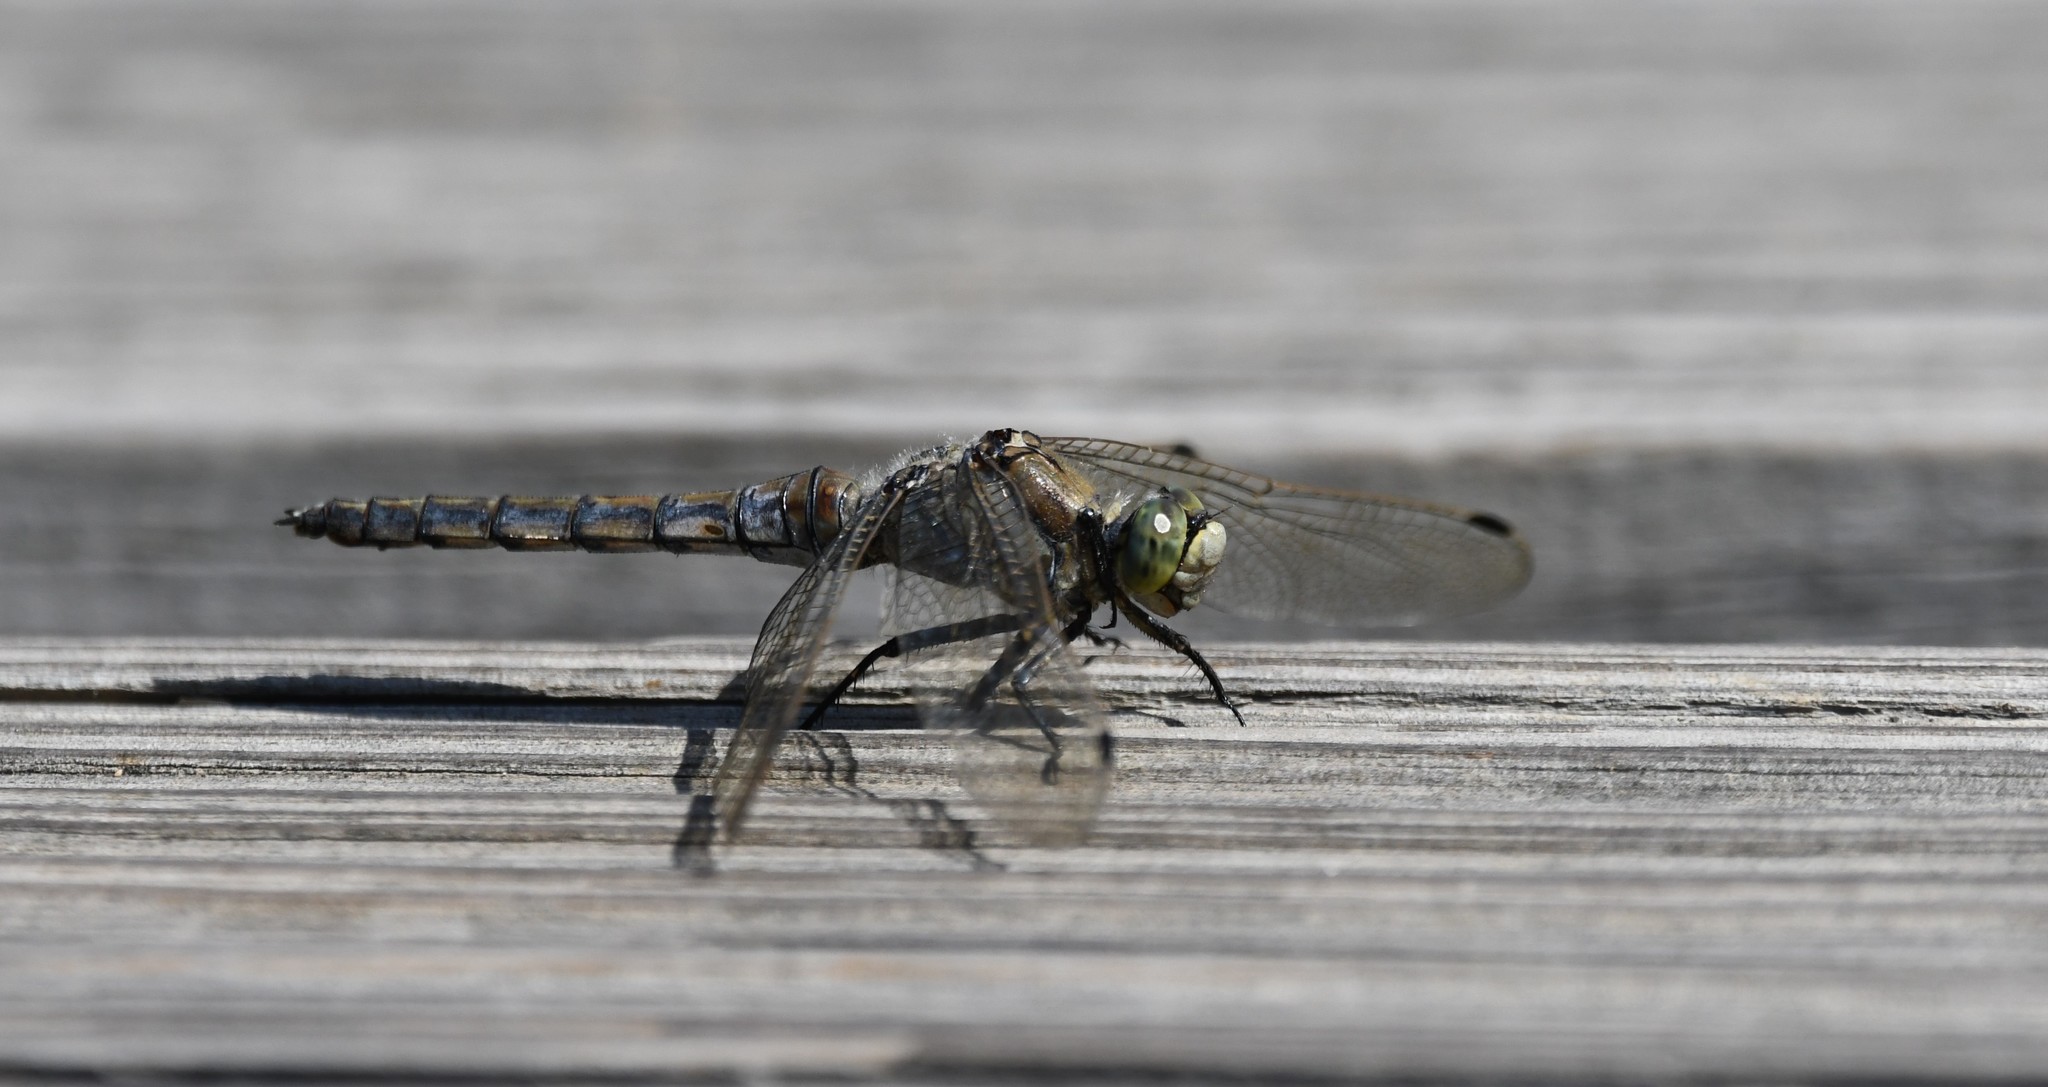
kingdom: Animalia
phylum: Arthropoda
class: Insecta
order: Odonata
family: Libellulidae
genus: Orthetrum
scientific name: Orthetrum cancellatum
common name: Black-tailed skimmer
